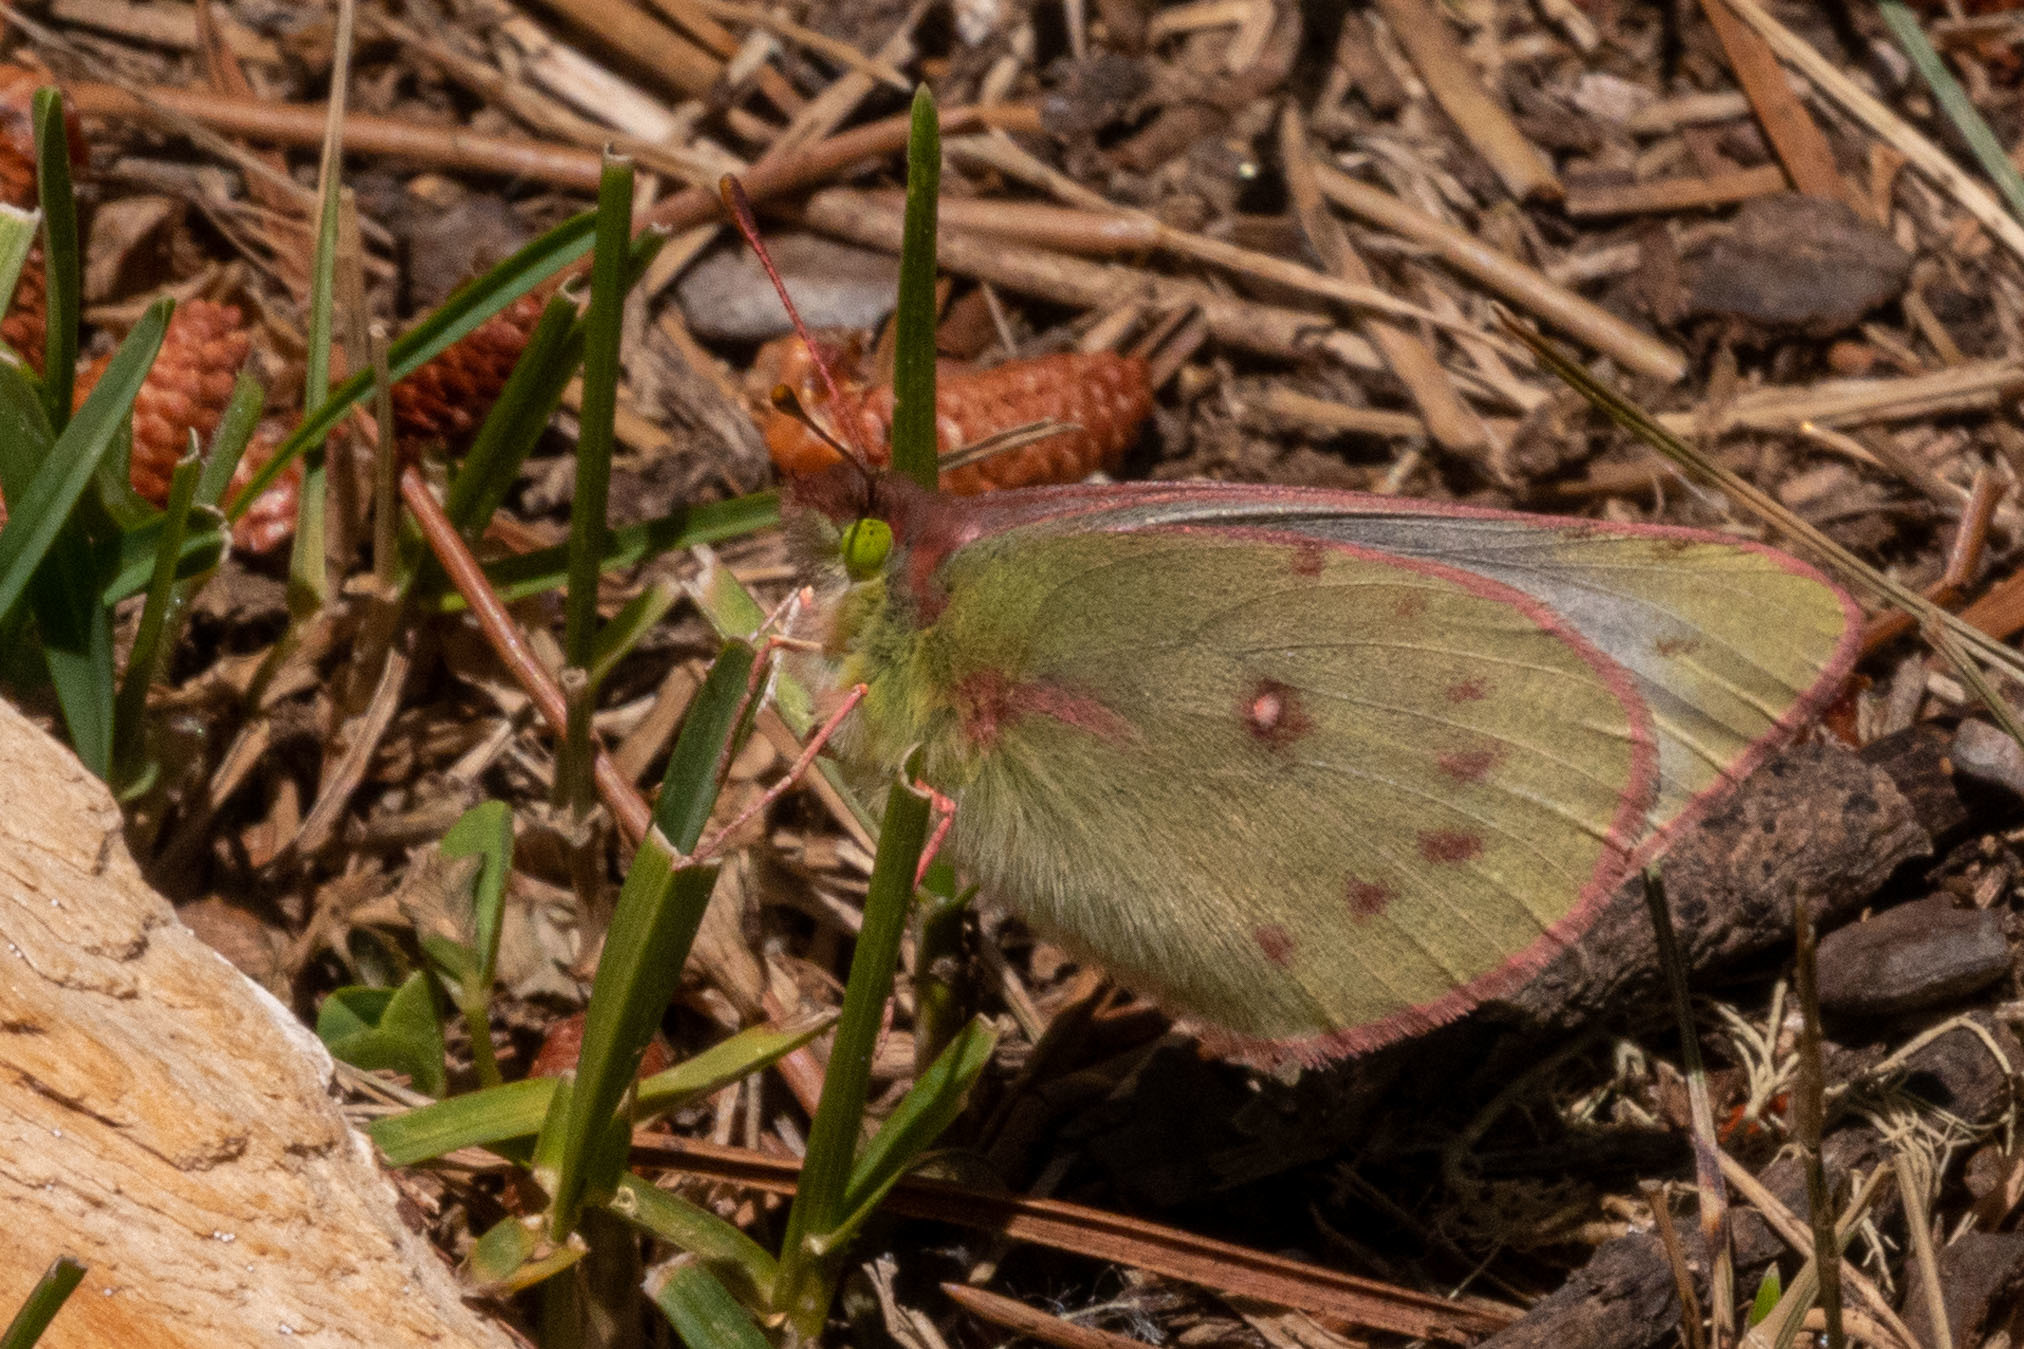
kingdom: Animalia
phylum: Arthropoda
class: Insecta
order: Lepidoptera
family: Pieridae
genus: Colias
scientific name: Colias vauthierii
